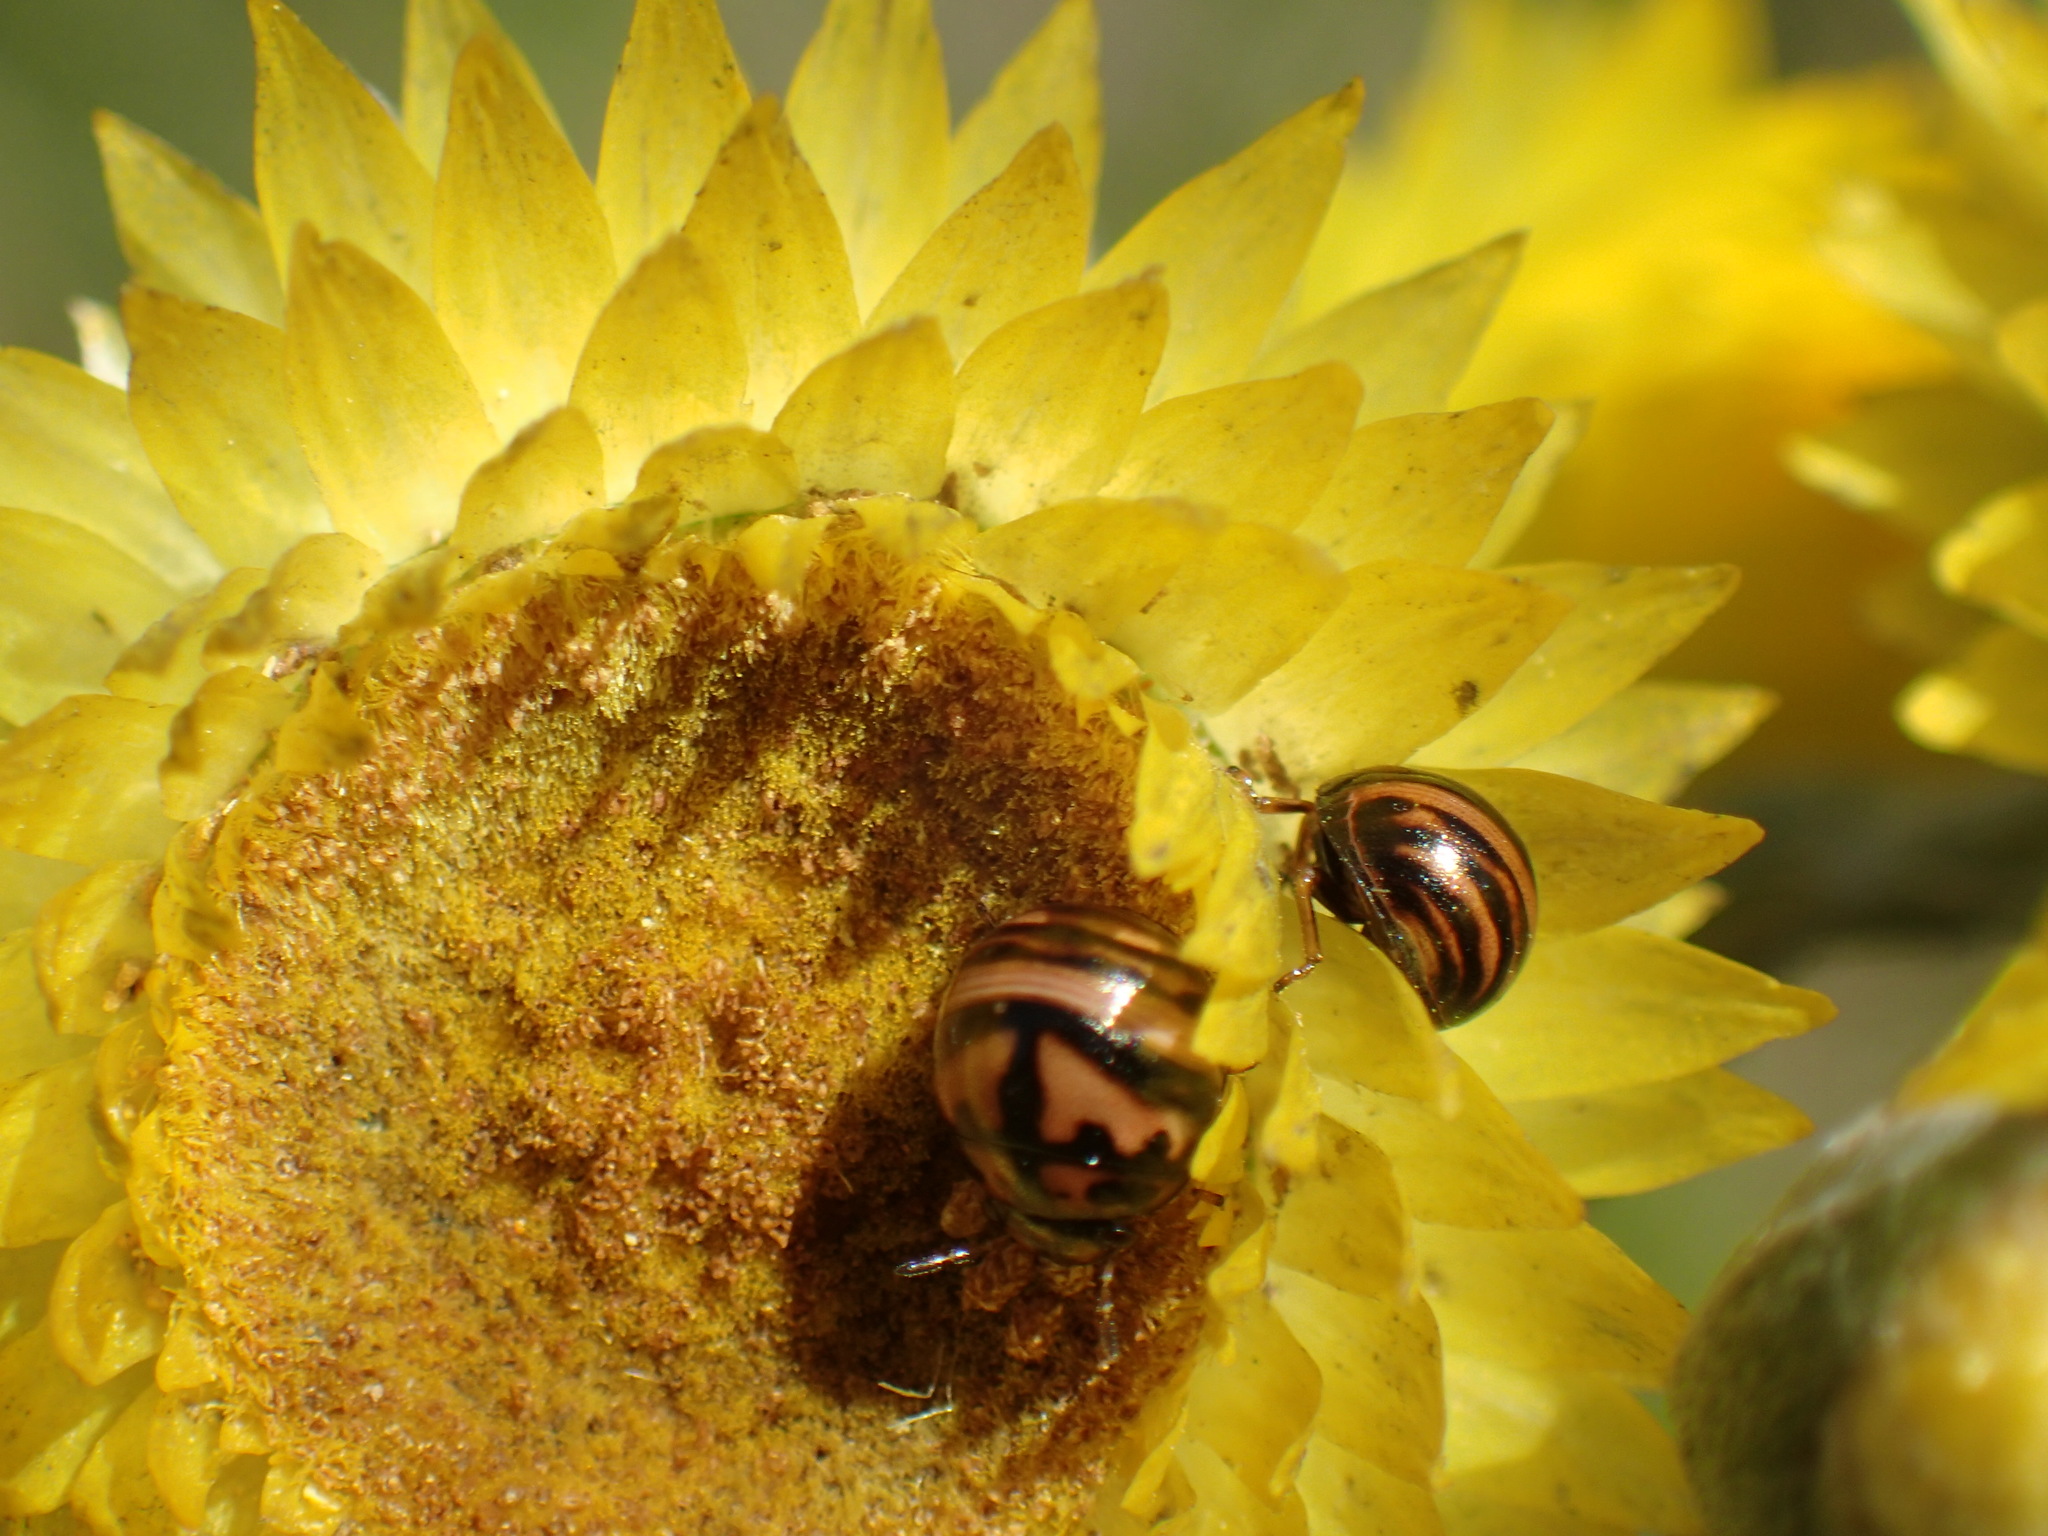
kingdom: Animalia
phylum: Arthropoda
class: Insecta
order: Hemiptera
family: Scutelleridae
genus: Sphaerocoris
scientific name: Sphaerocoris
